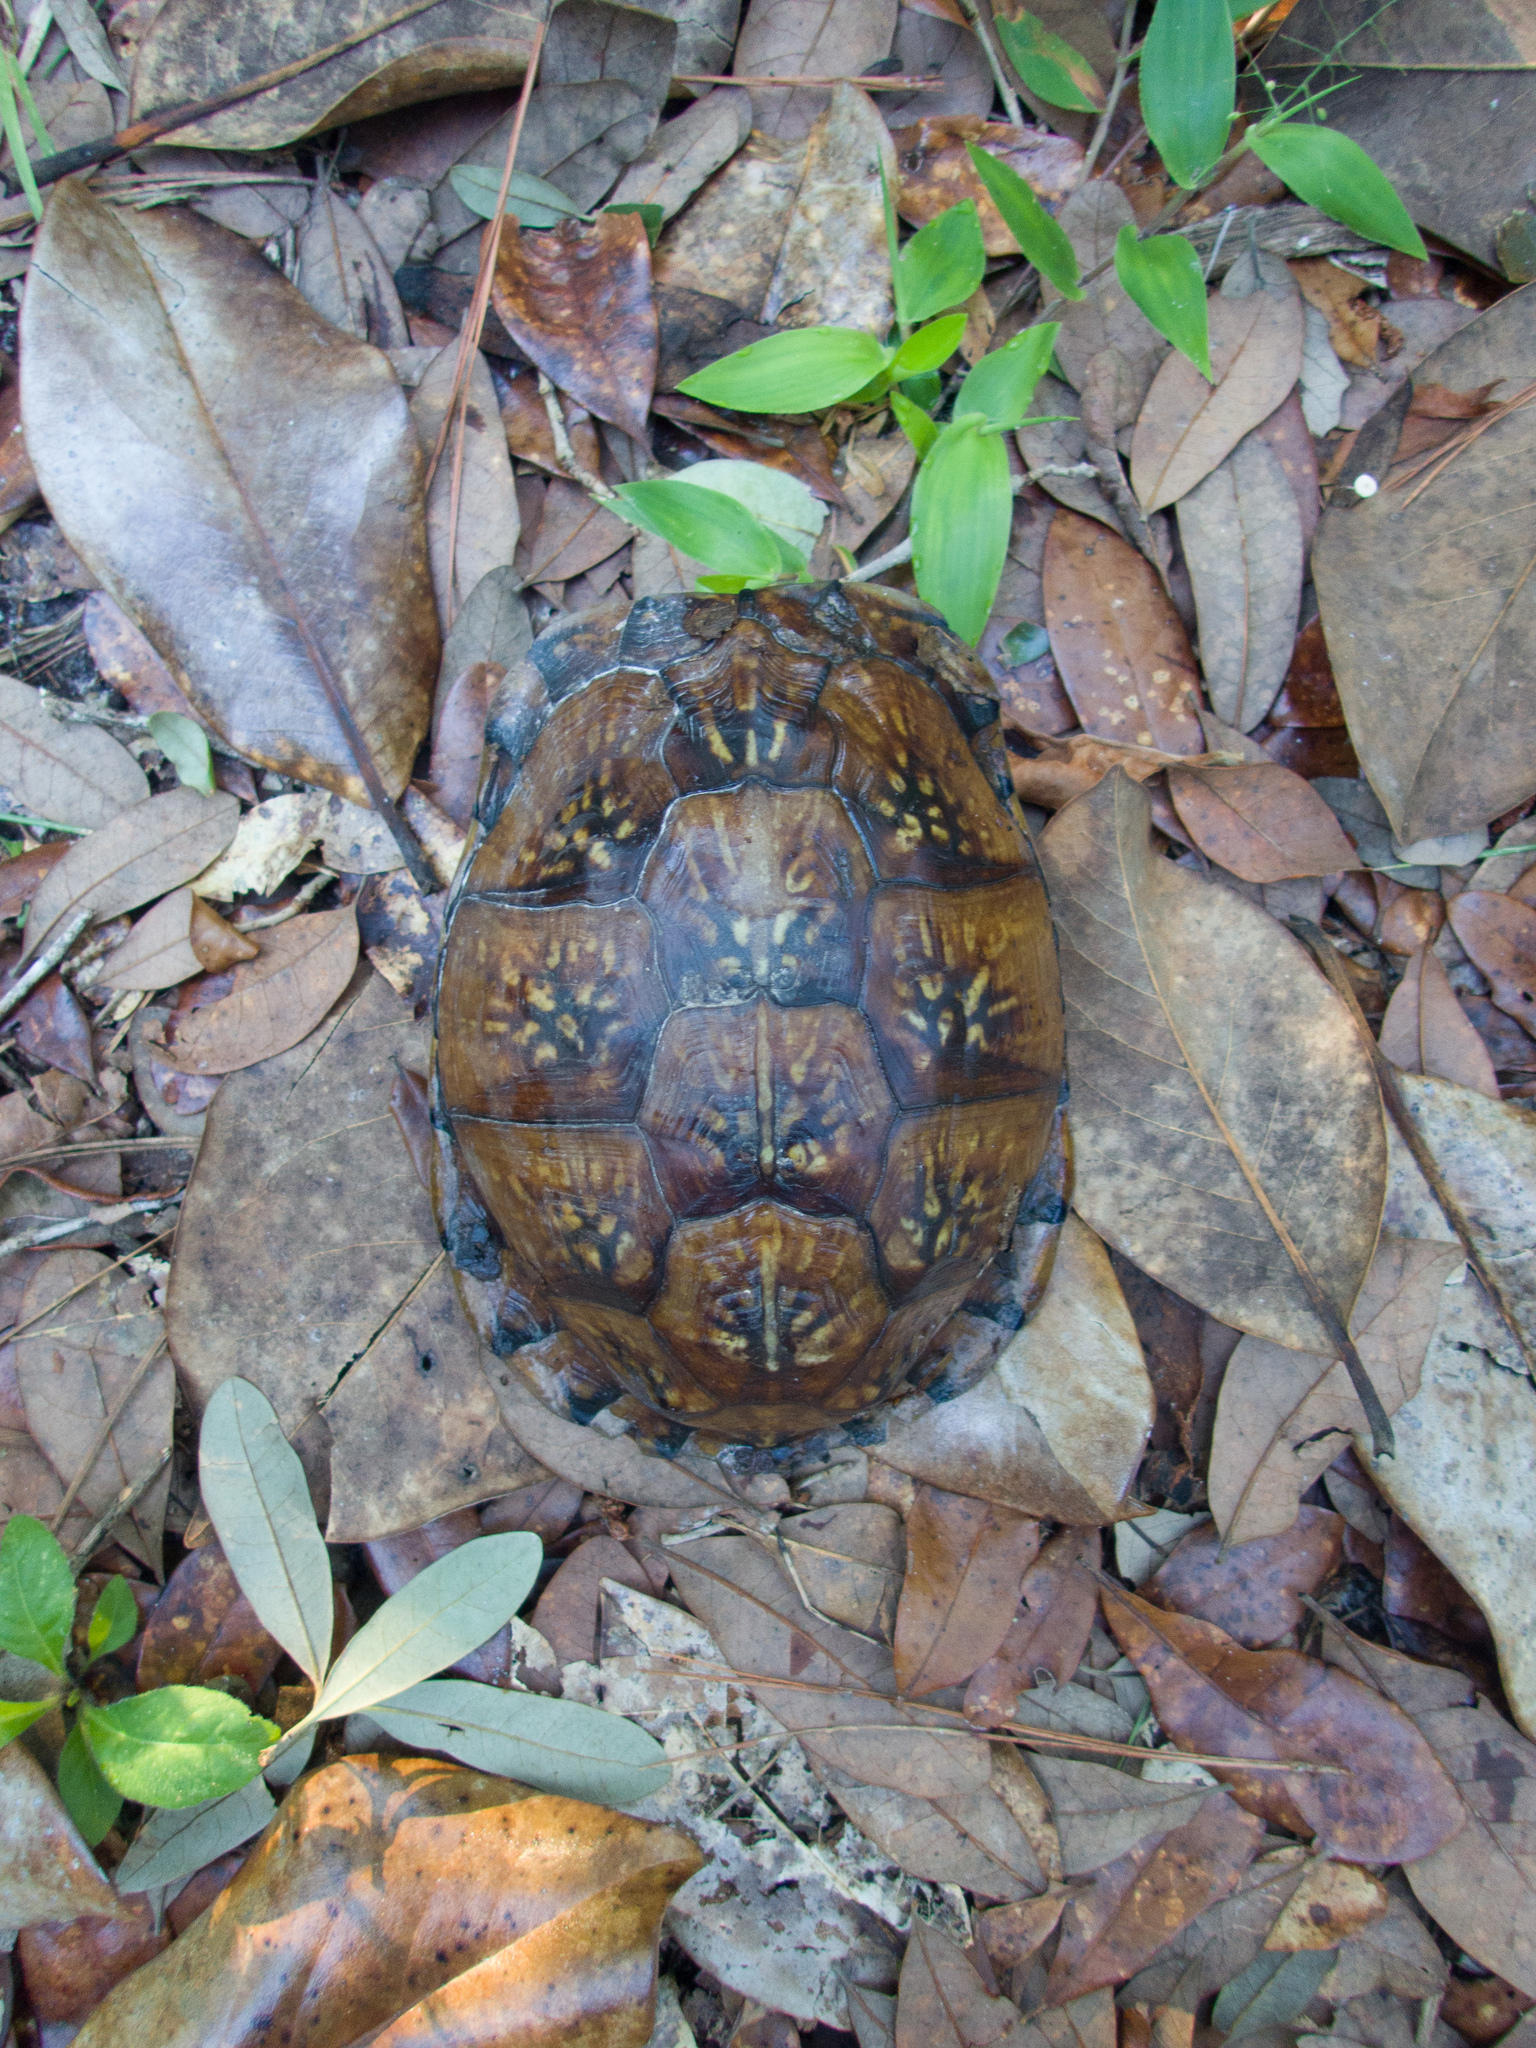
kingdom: Animalia
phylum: Chordata
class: Testudines
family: Emydidae
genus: Terrapene
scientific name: Terrapene carolina
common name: Common box turtle
